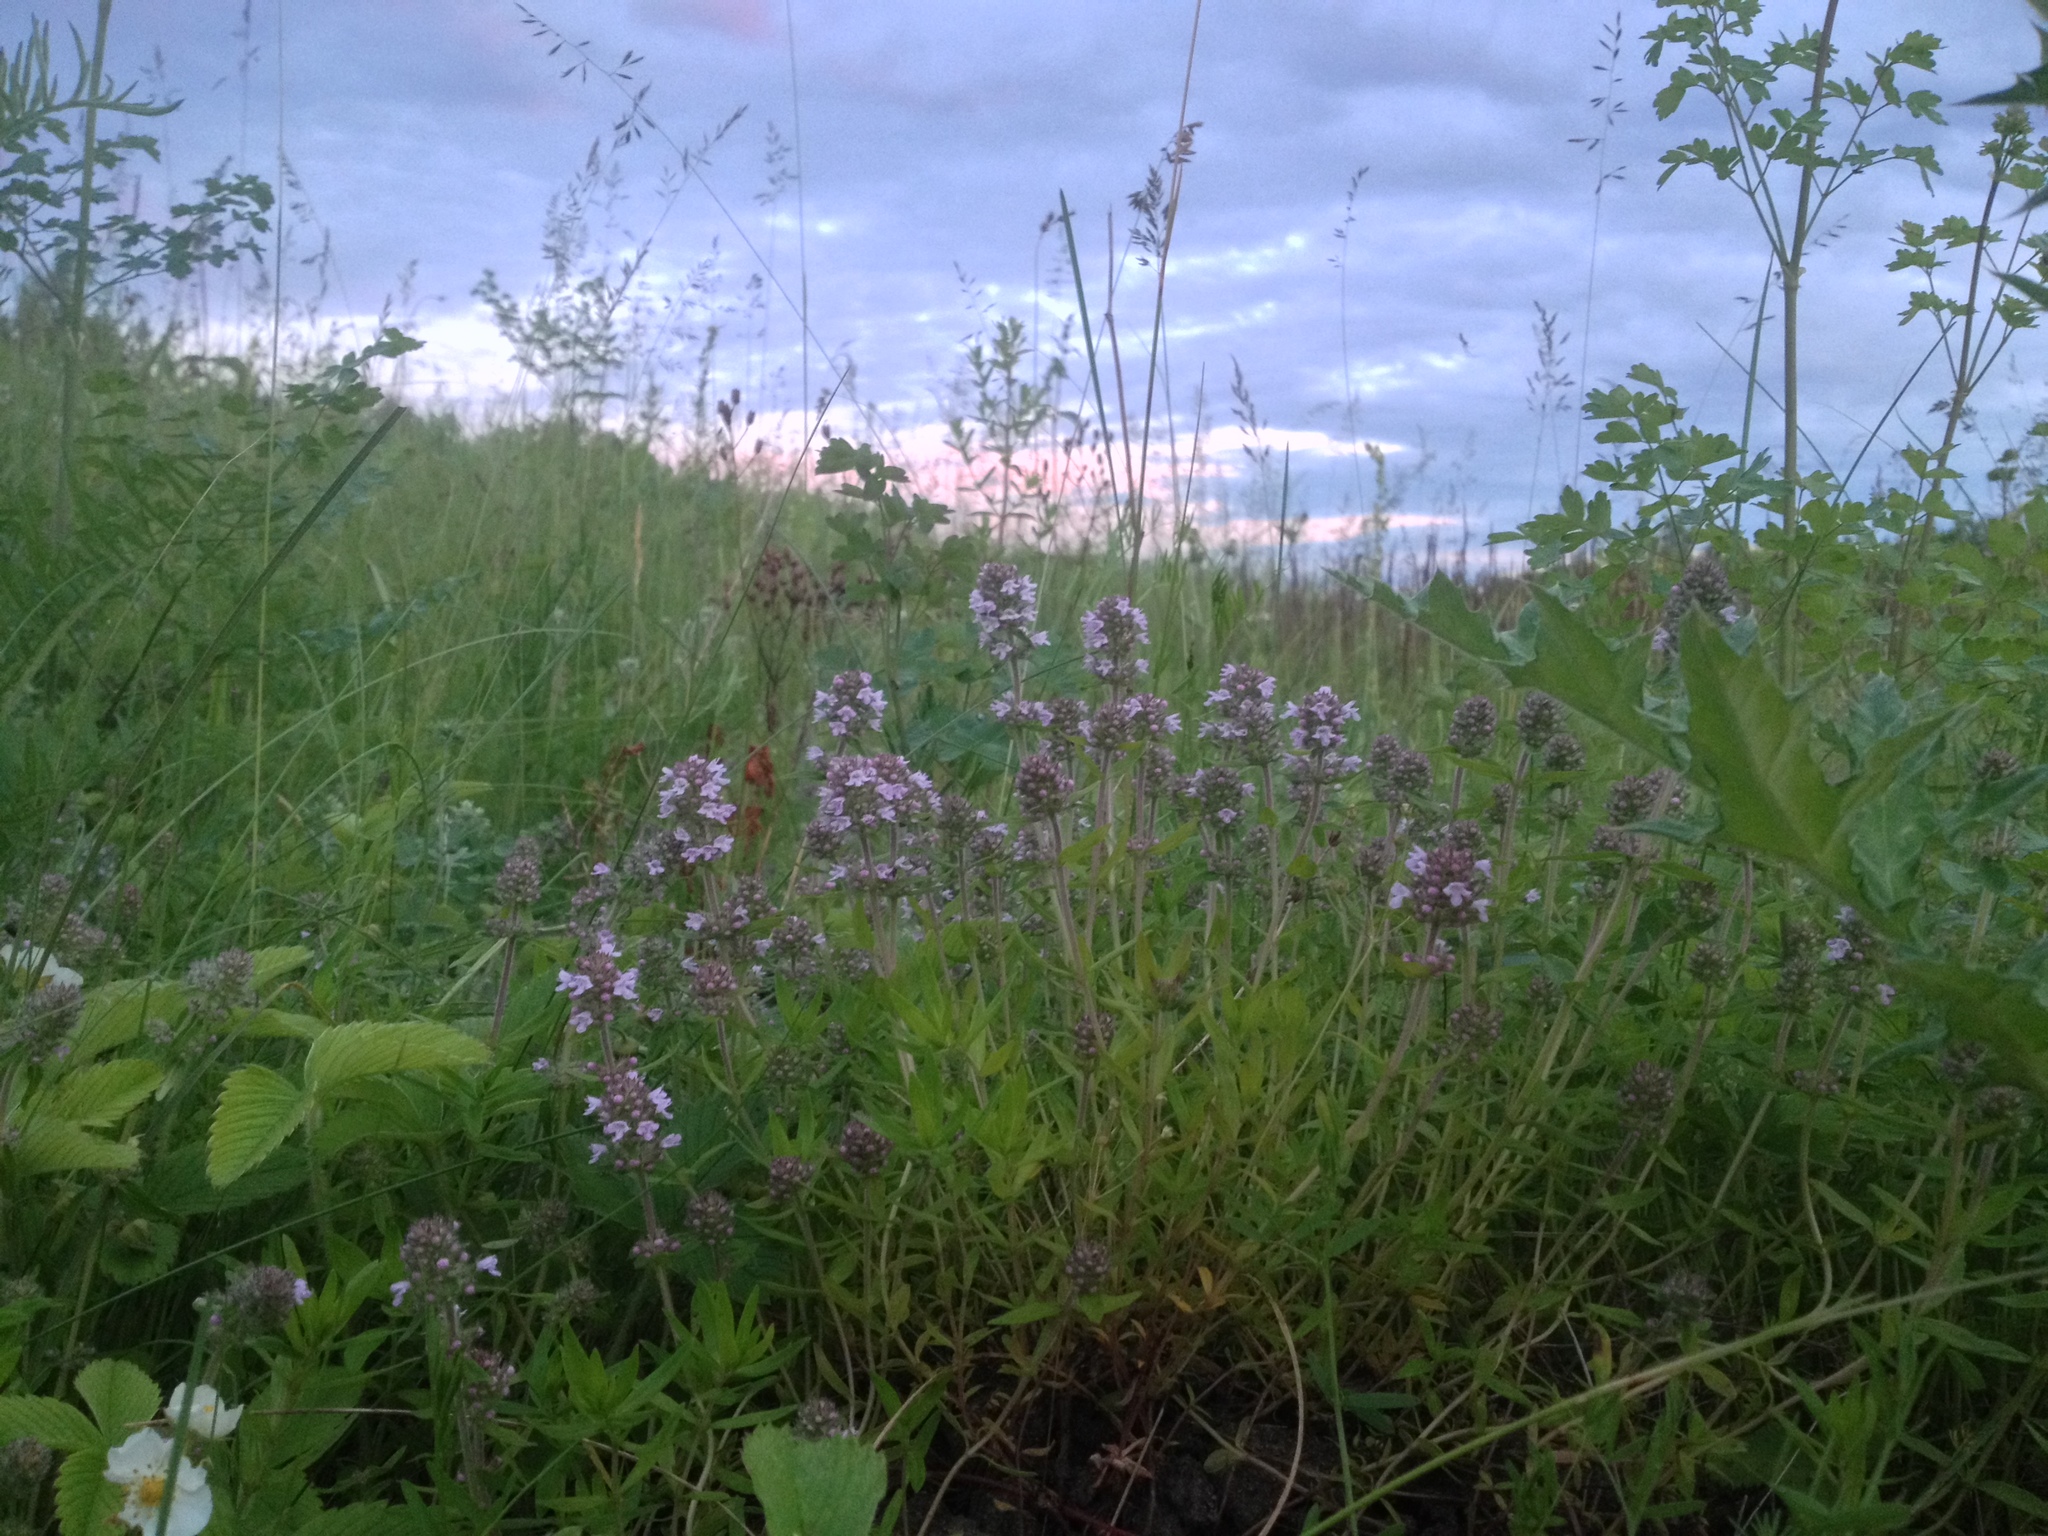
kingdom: Plantae
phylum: Tracheophyta
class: Magnoliopsida
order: Lamiales
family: Lamiaceae
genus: Thymus
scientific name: Thymus pannonicus
